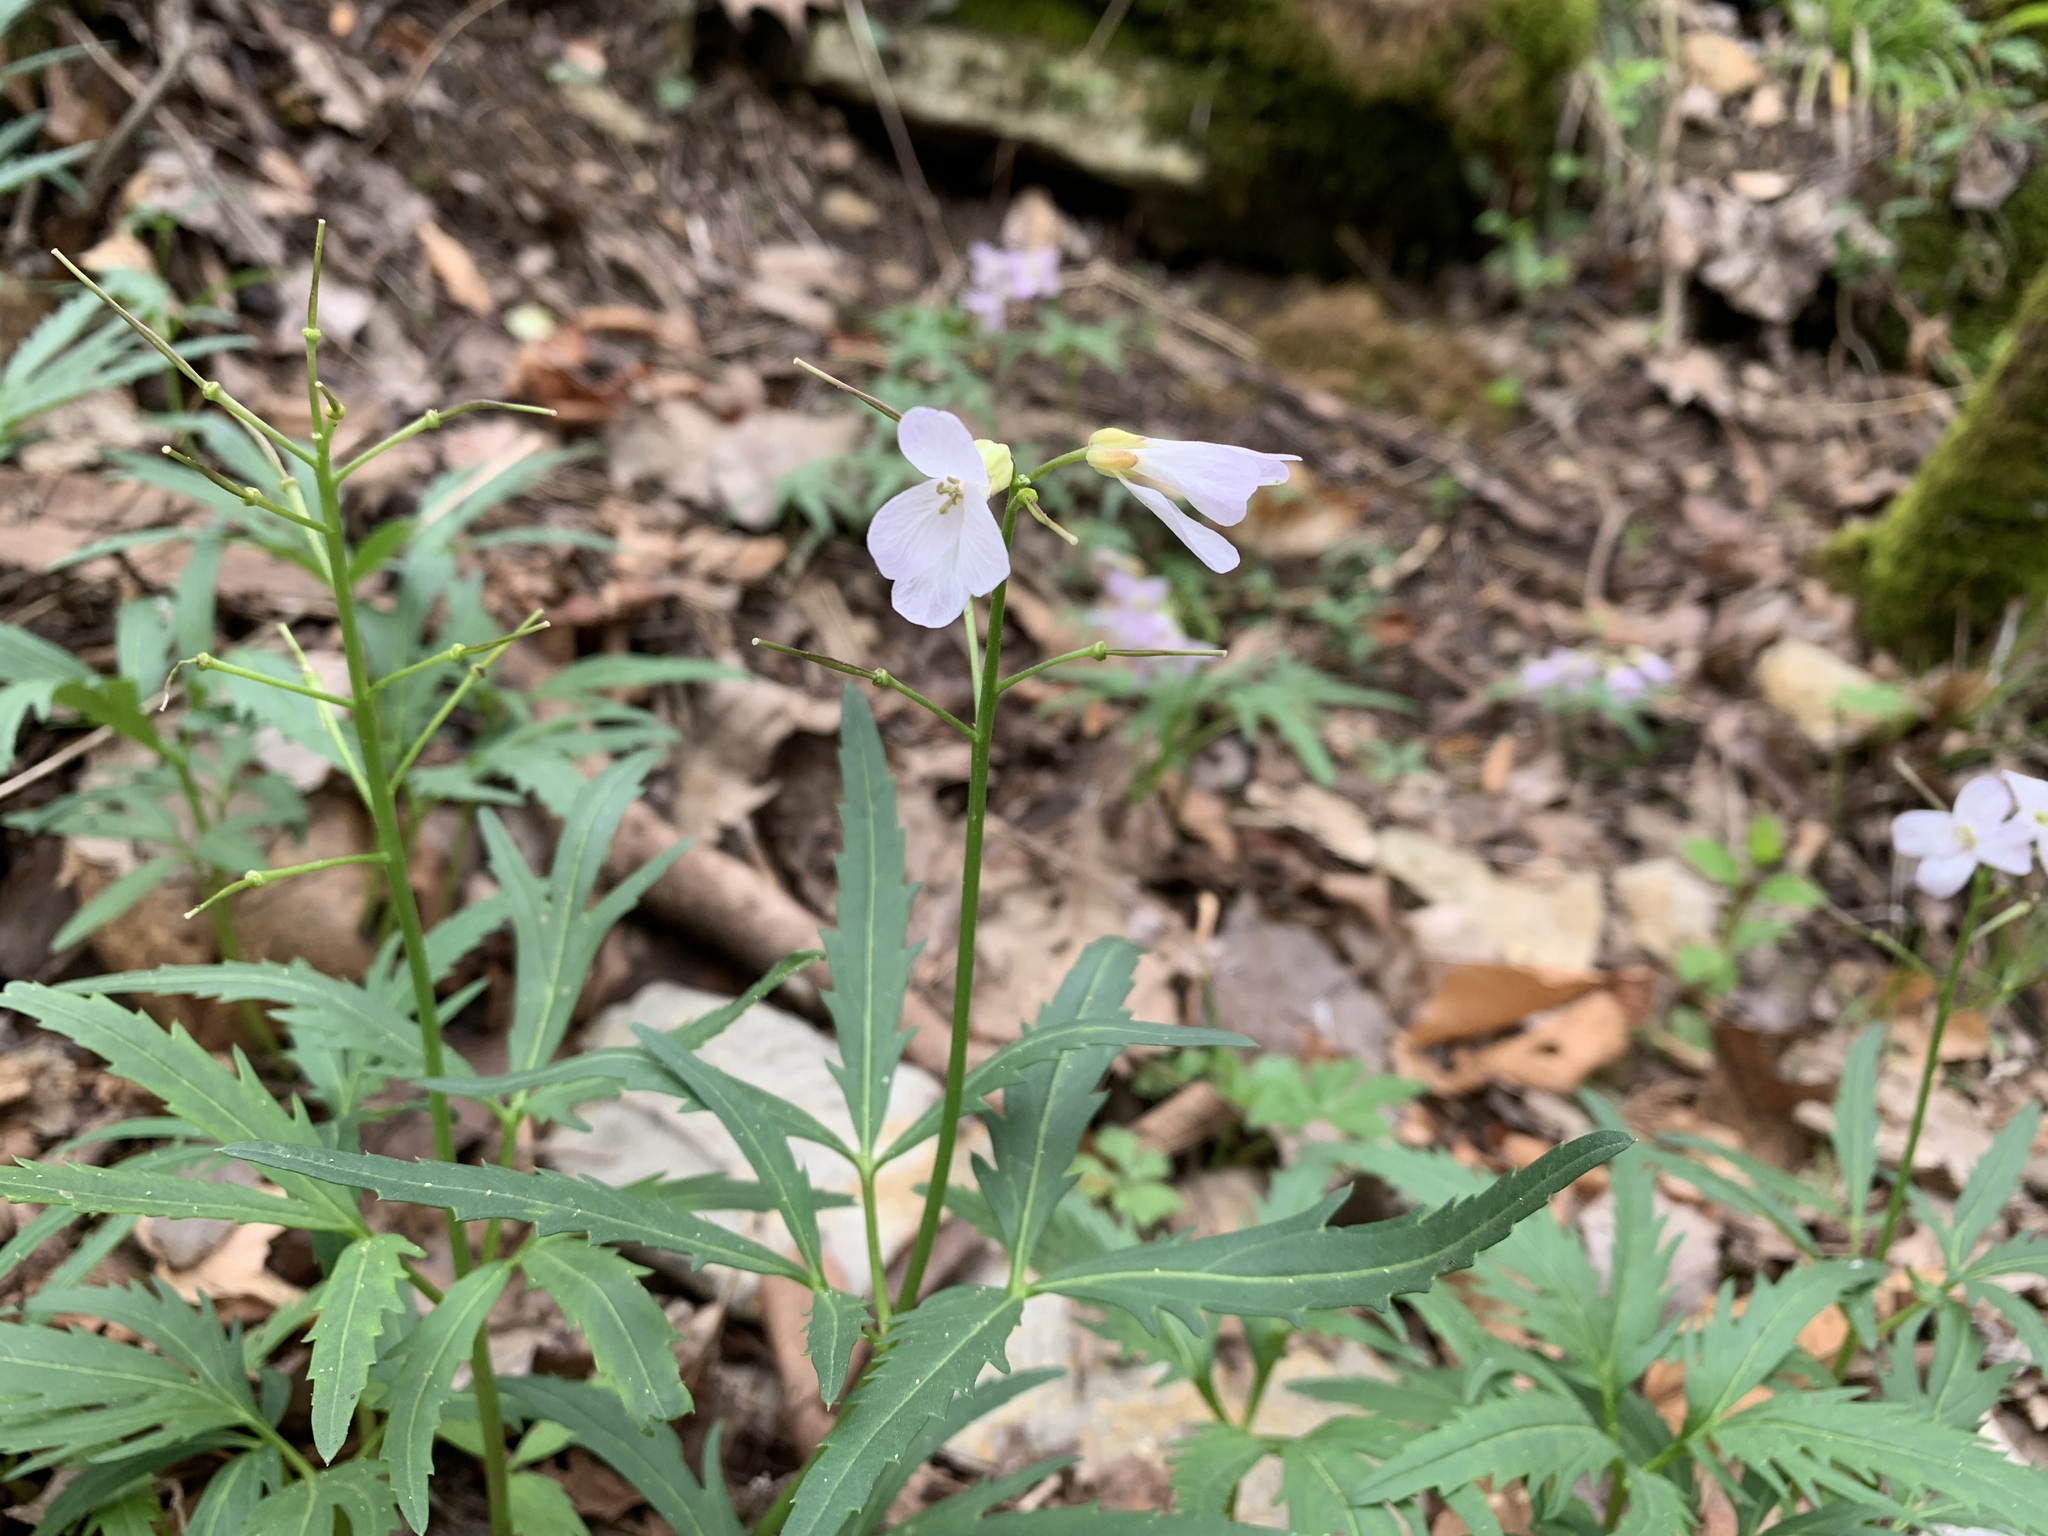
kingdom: Plantae
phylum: Tracheophyta
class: Magnoliopsida
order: Brassicales
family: Brassicaceae
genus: Cardamine
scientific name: Cardamine concatenata
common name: Cut-leaf toothcup
